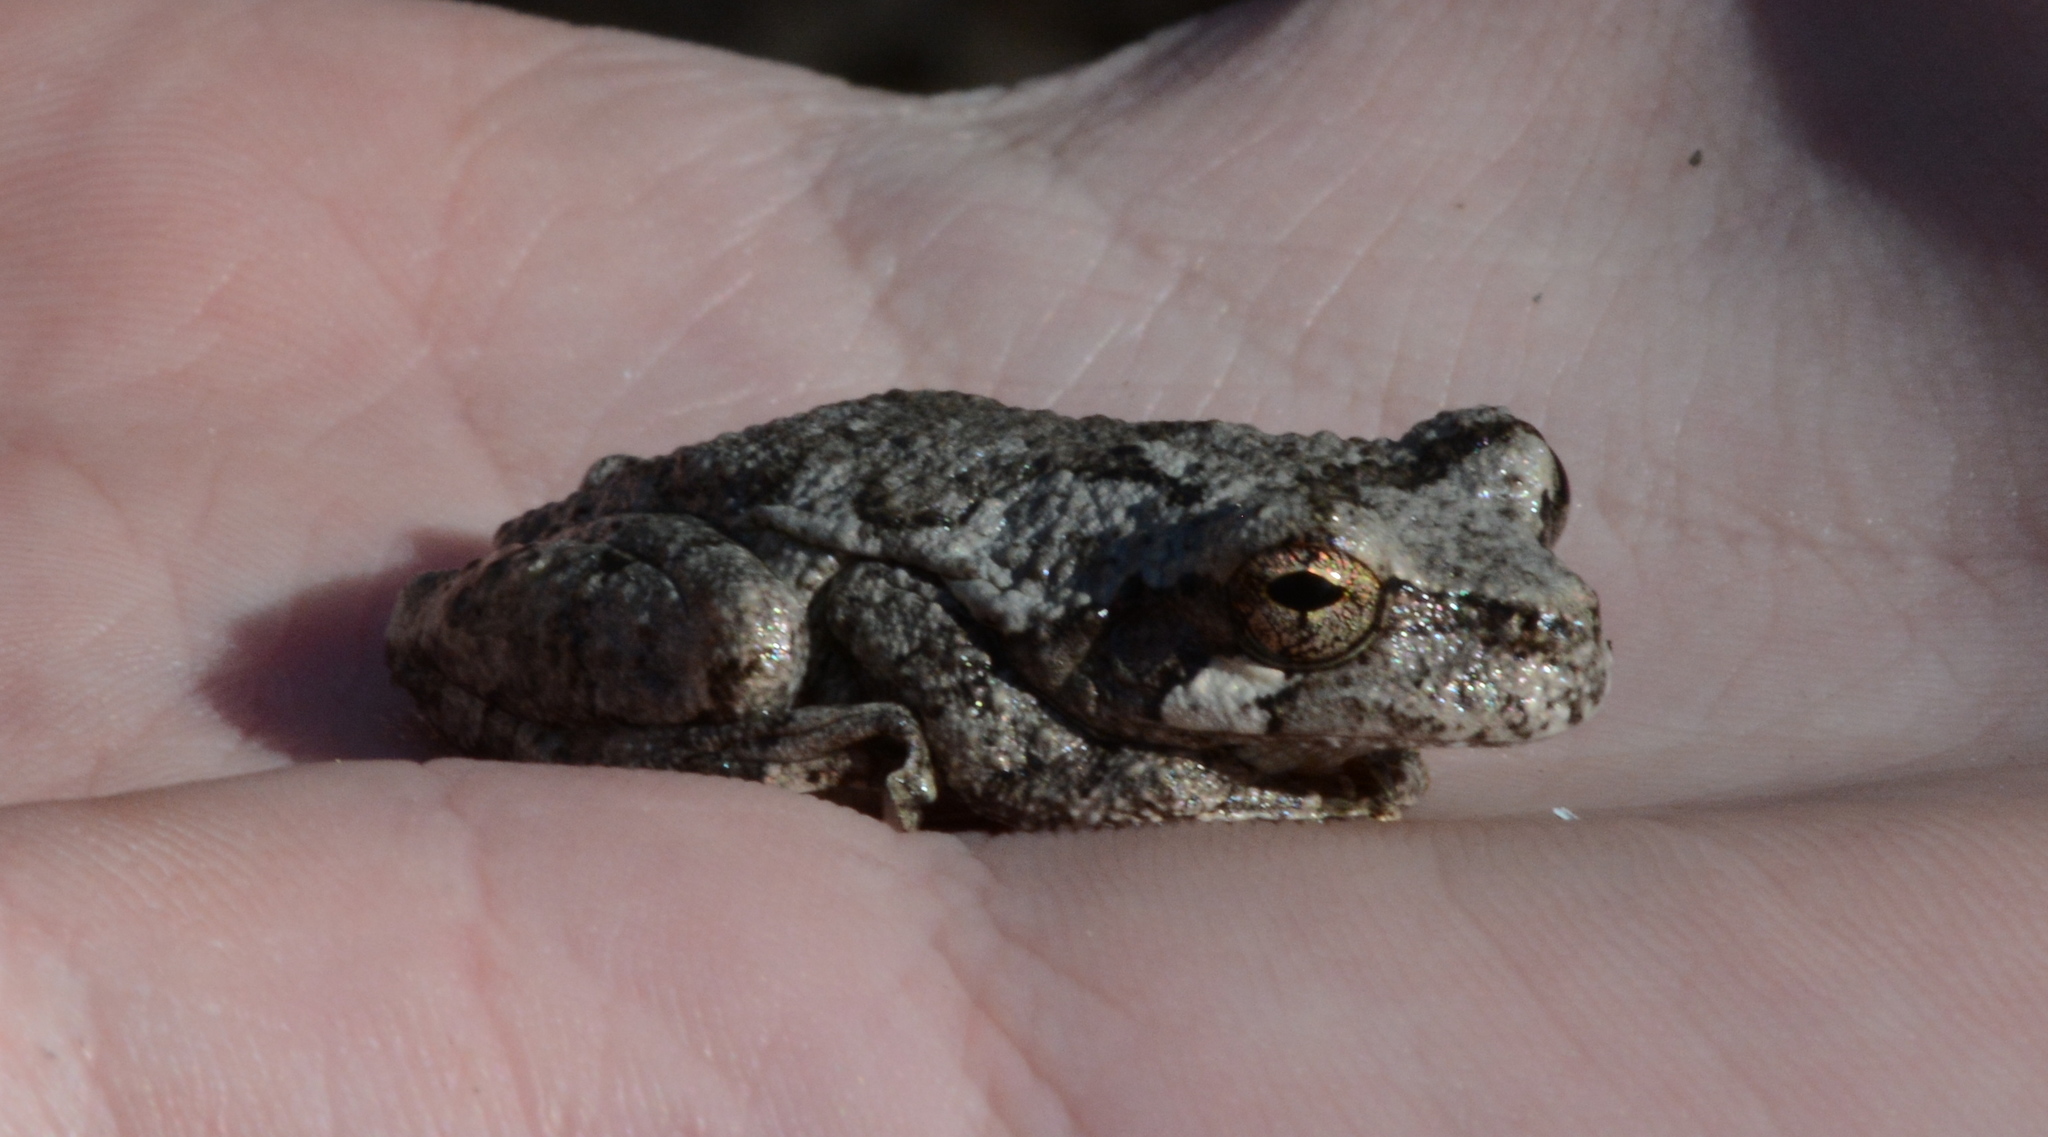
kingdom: Animalia
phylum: Chordata
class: Amphibia
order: Anura
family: Hylidae
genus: Dryophytes
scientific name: Dryophytes chrysoscelis
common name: Cope's gray treefrog
